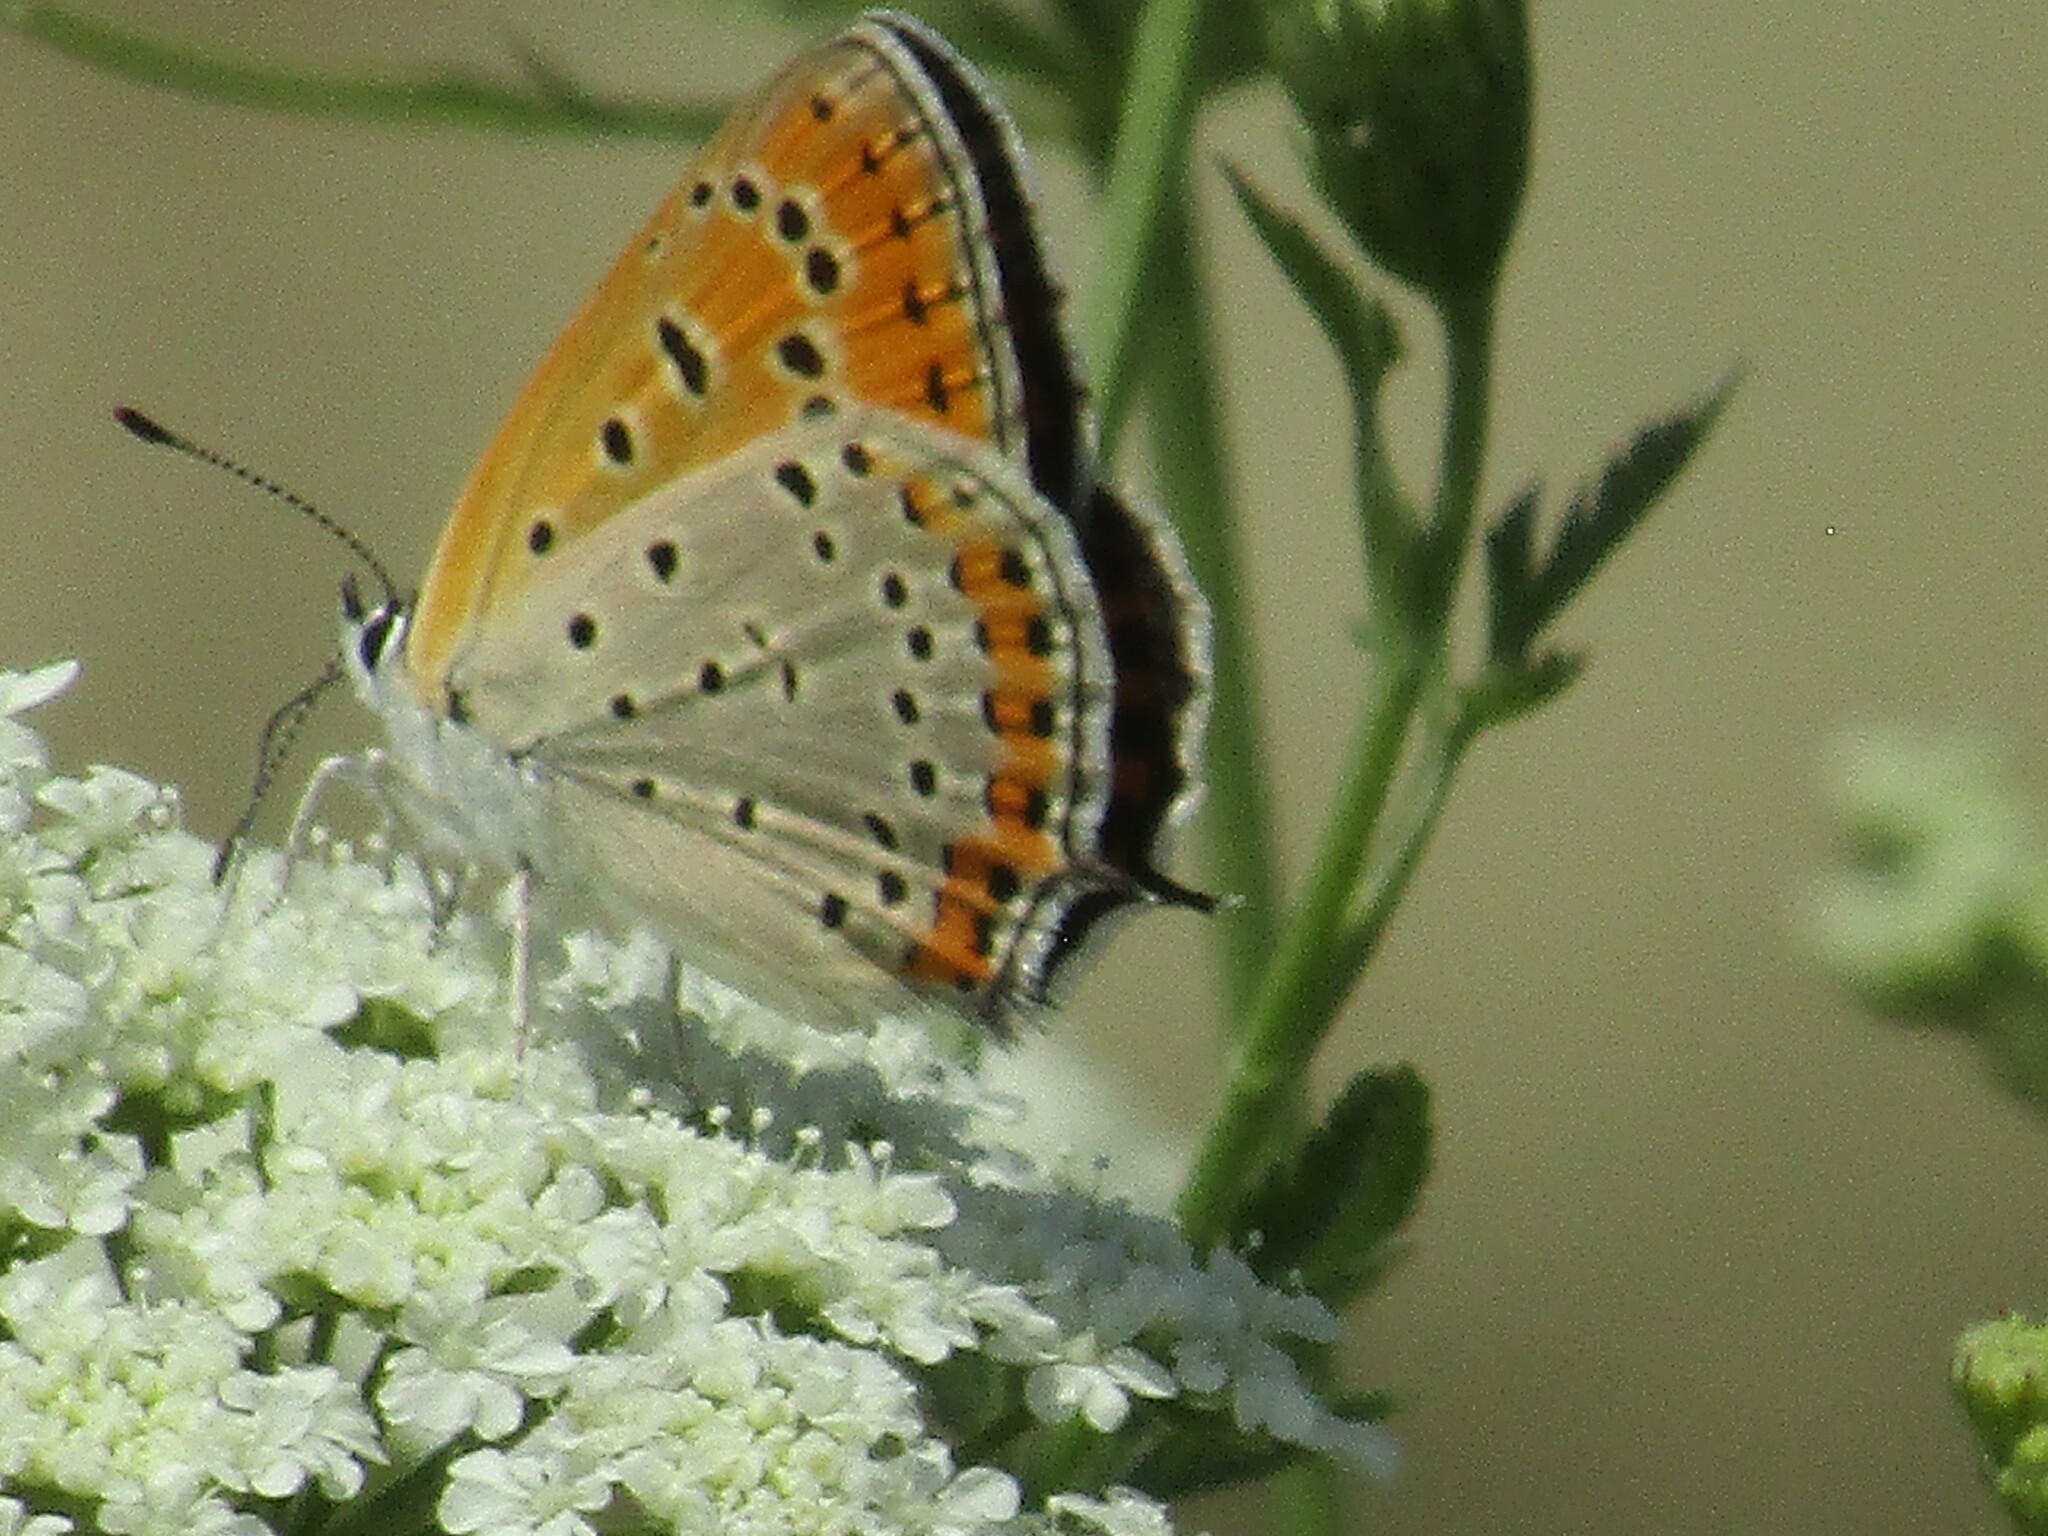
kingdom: Animalia
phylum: Arthropoda
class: Insecta
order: Lepidoptera
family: Lycaenidae
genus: Thersamonia
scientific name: Thersamonia thersamon
